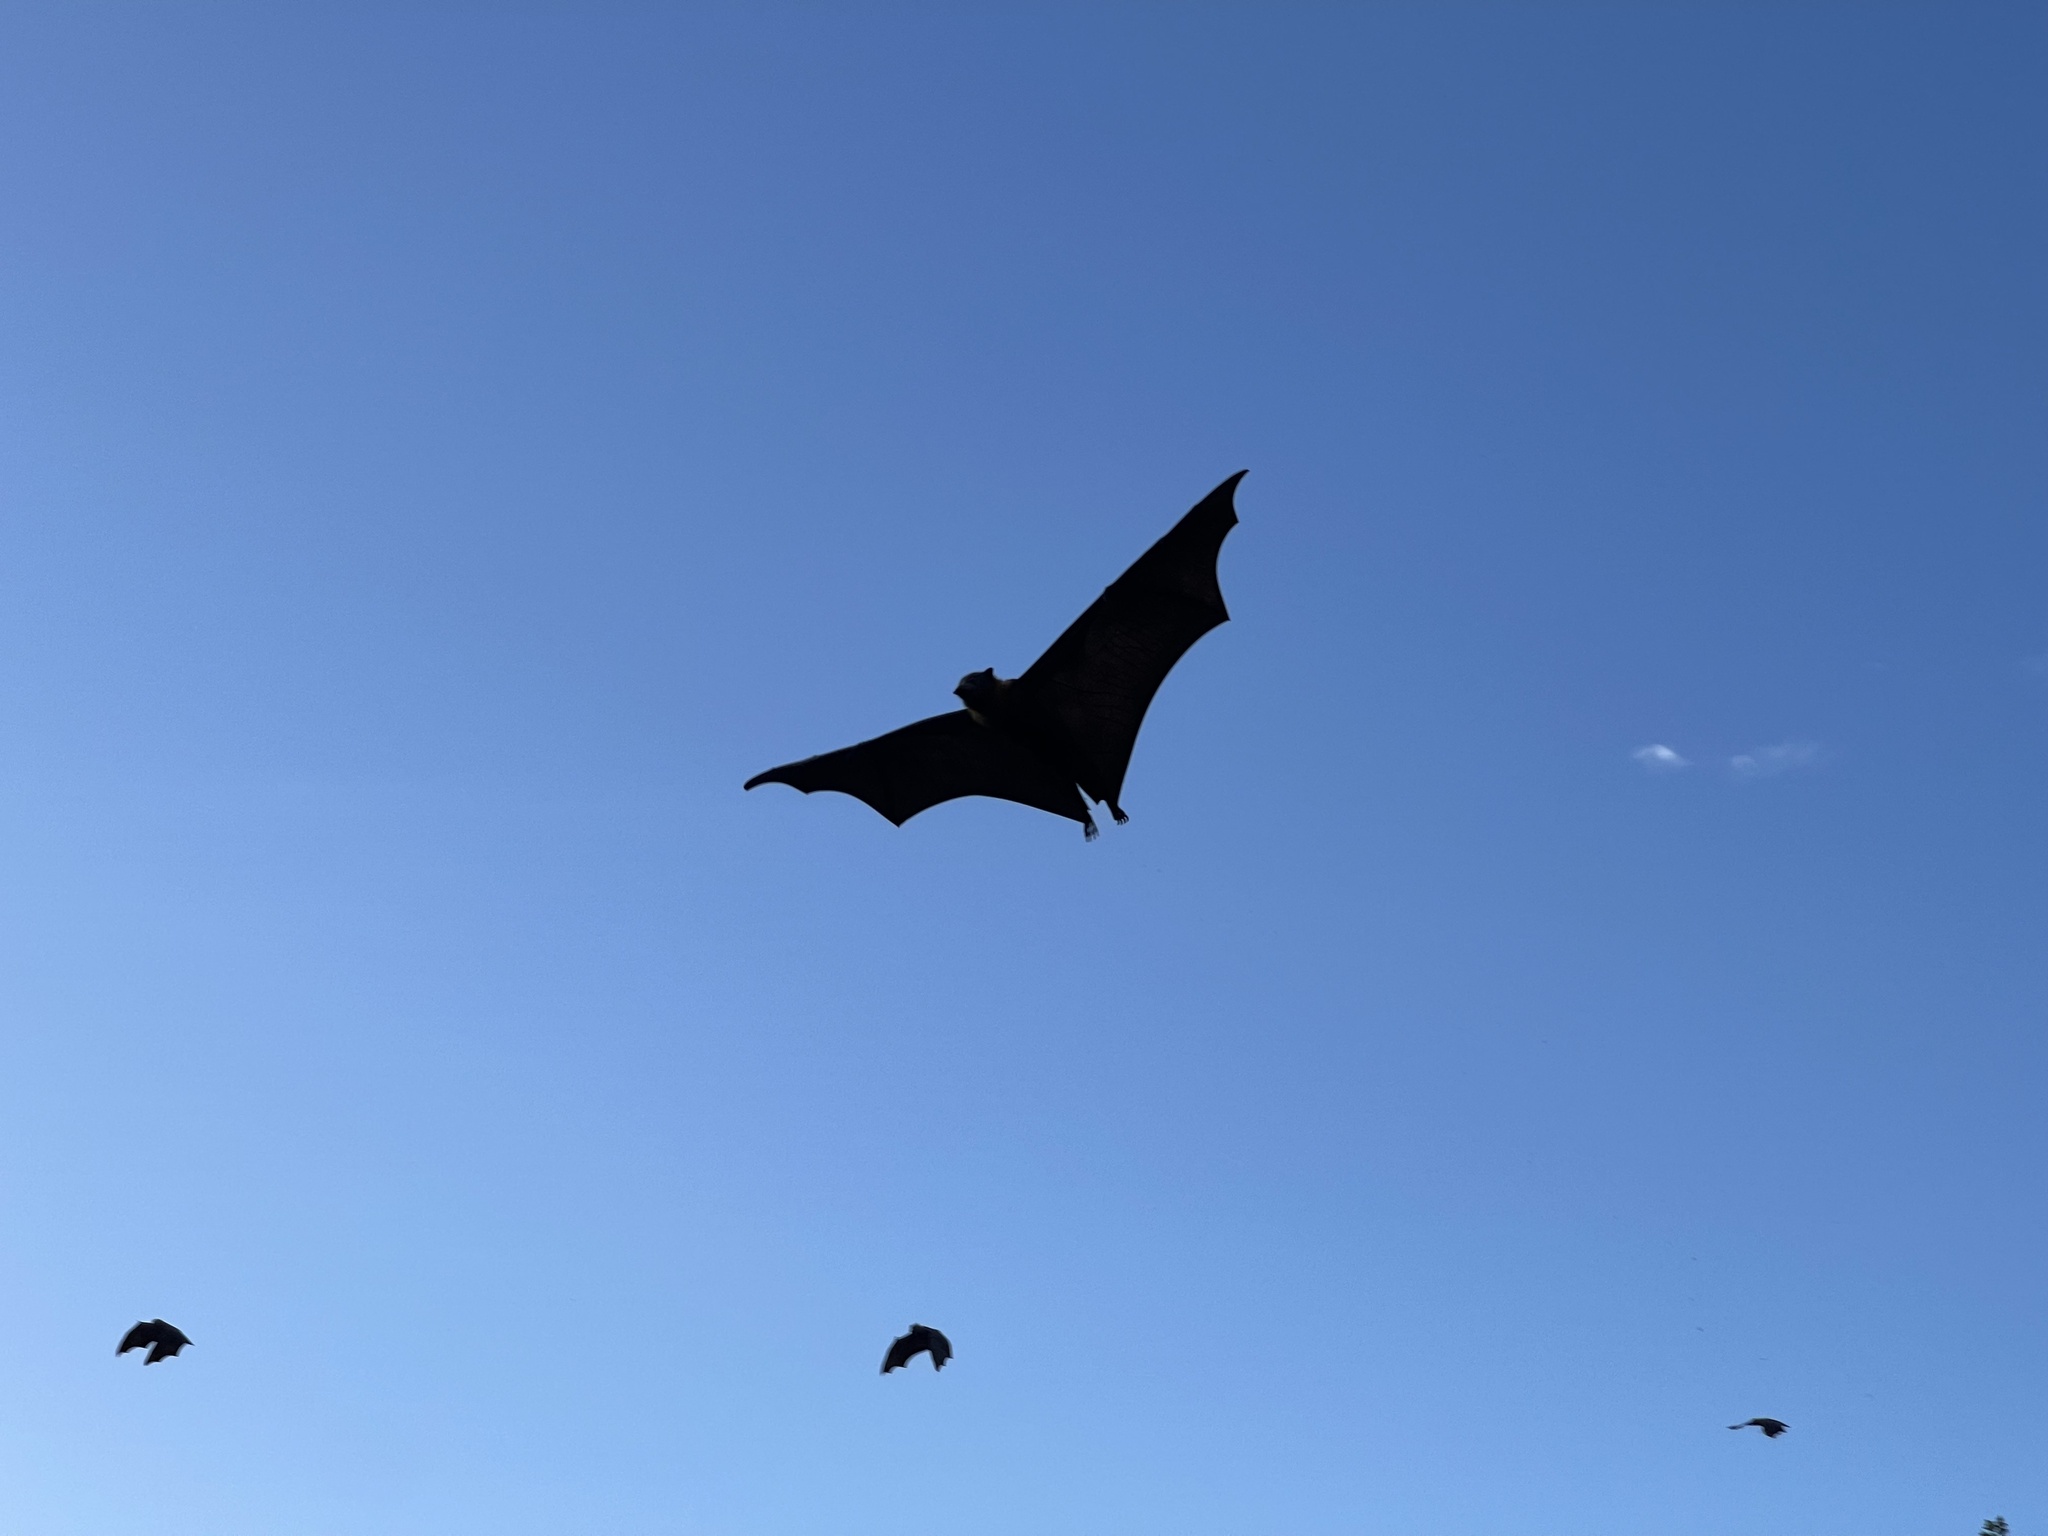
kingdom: Animalia
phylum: Chordata
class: Mammalia
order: Chiroptera
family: Pteropodidae
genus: Pteropus
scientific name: Pteropus poliocephalus
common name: Gray-headed flying fox
